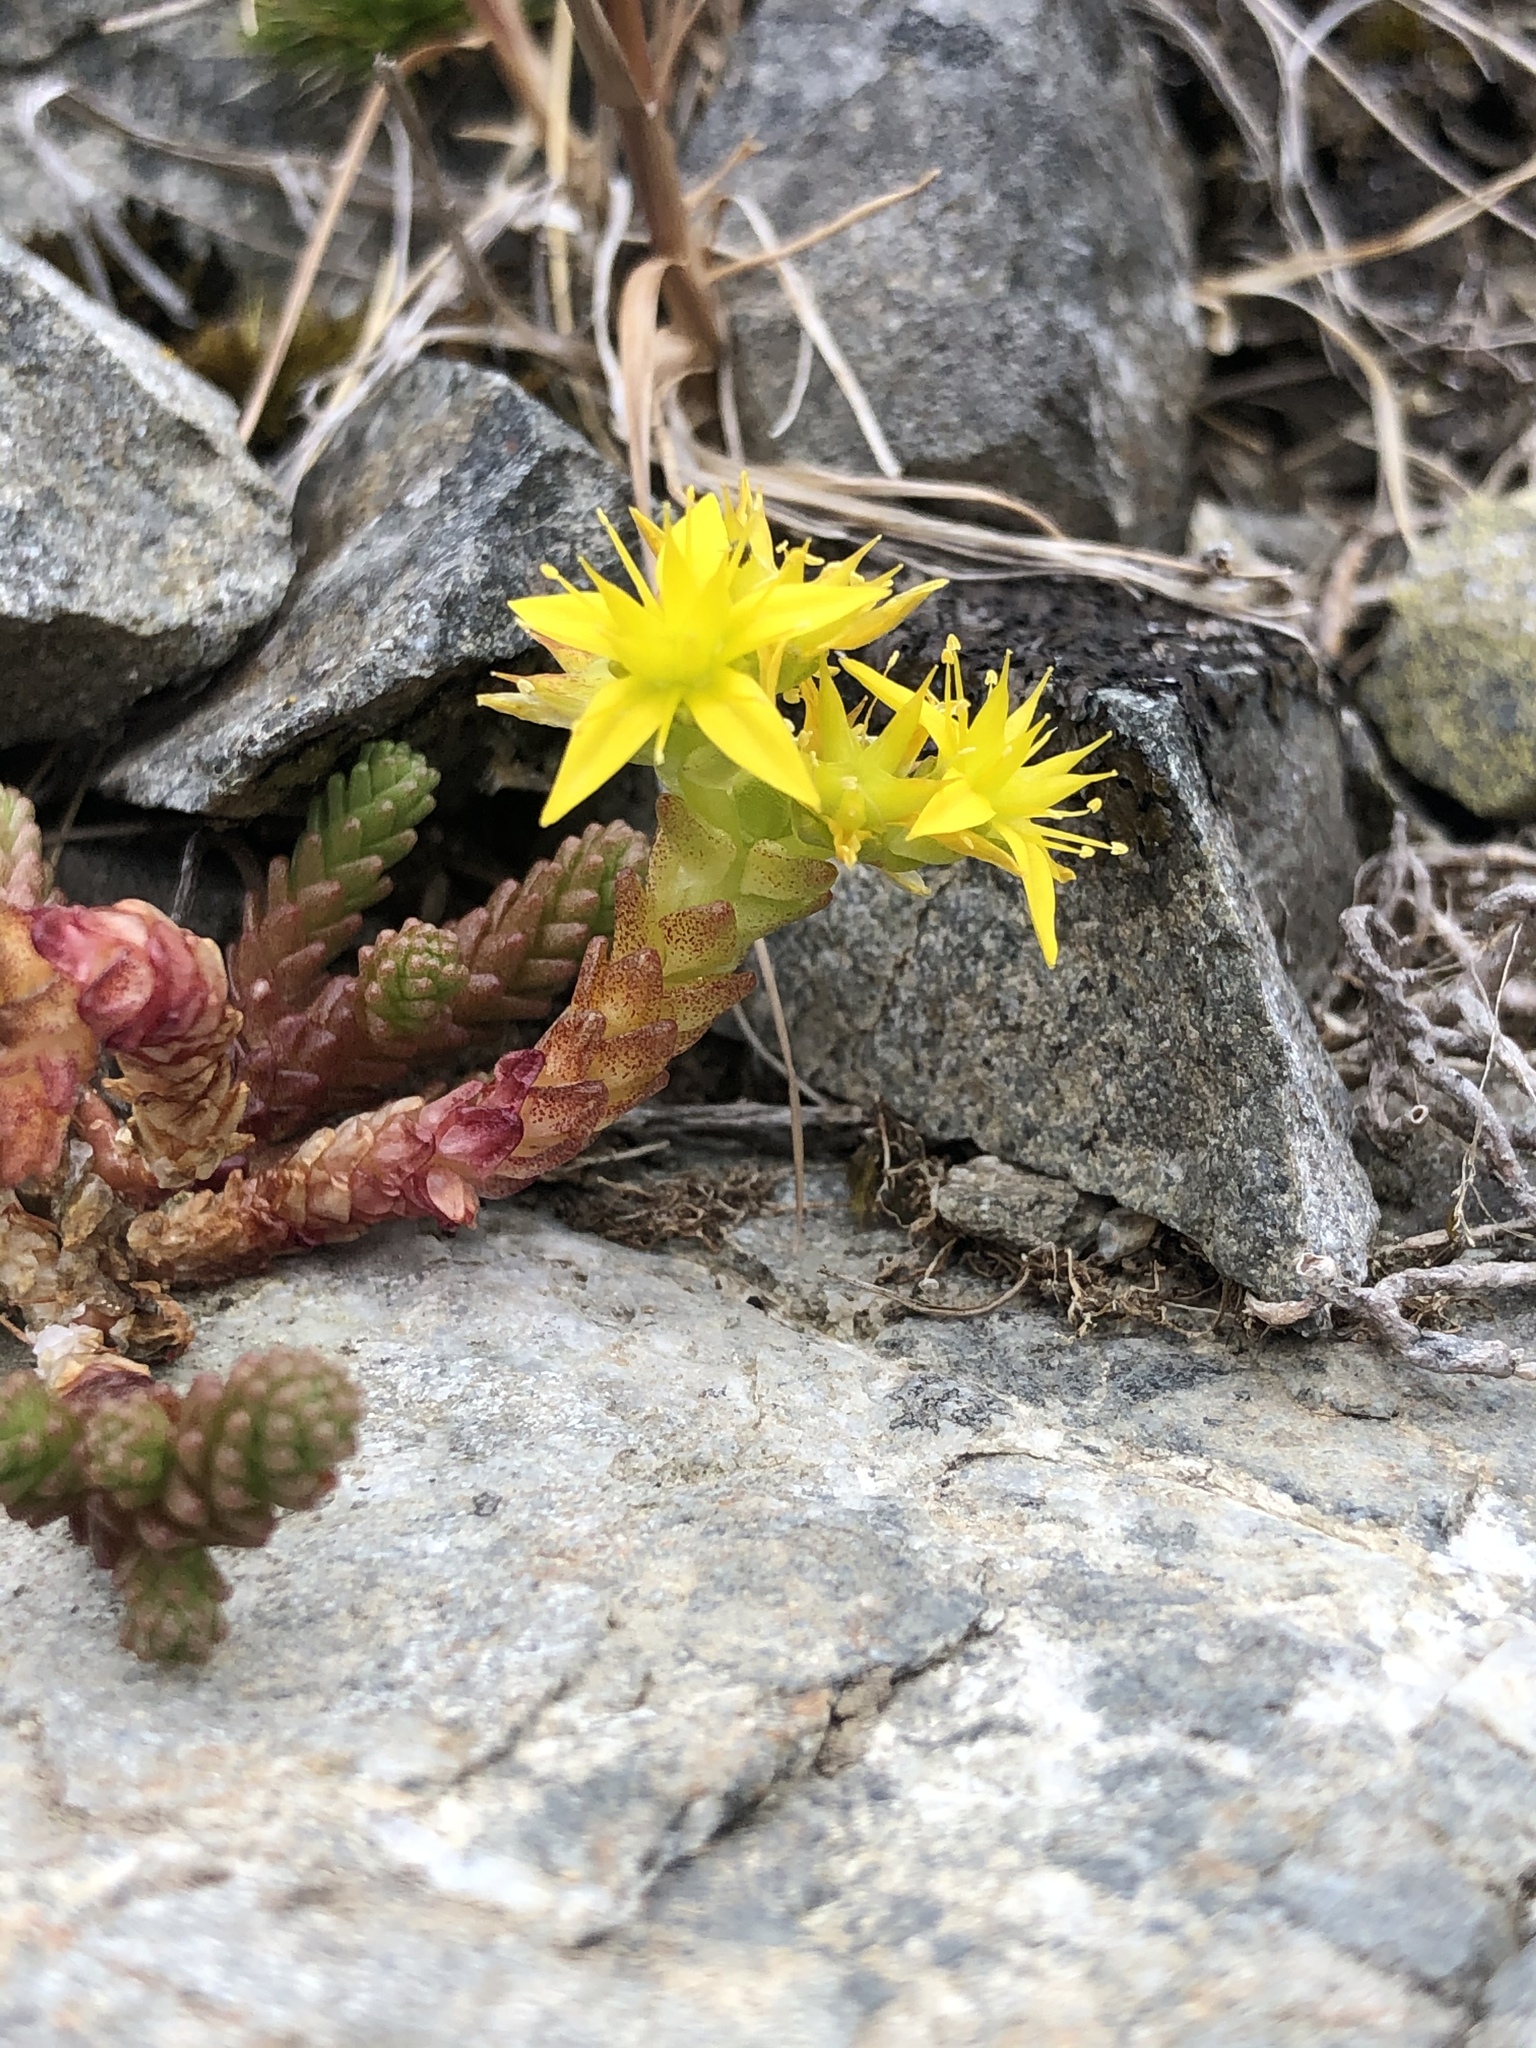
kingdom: Plantae
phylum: Tracheophyta
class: Magnoliopsida
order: Saxifragales
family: Crassulaceae
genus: Sedum
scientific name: Sedum acre
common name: Biting stonecrop
